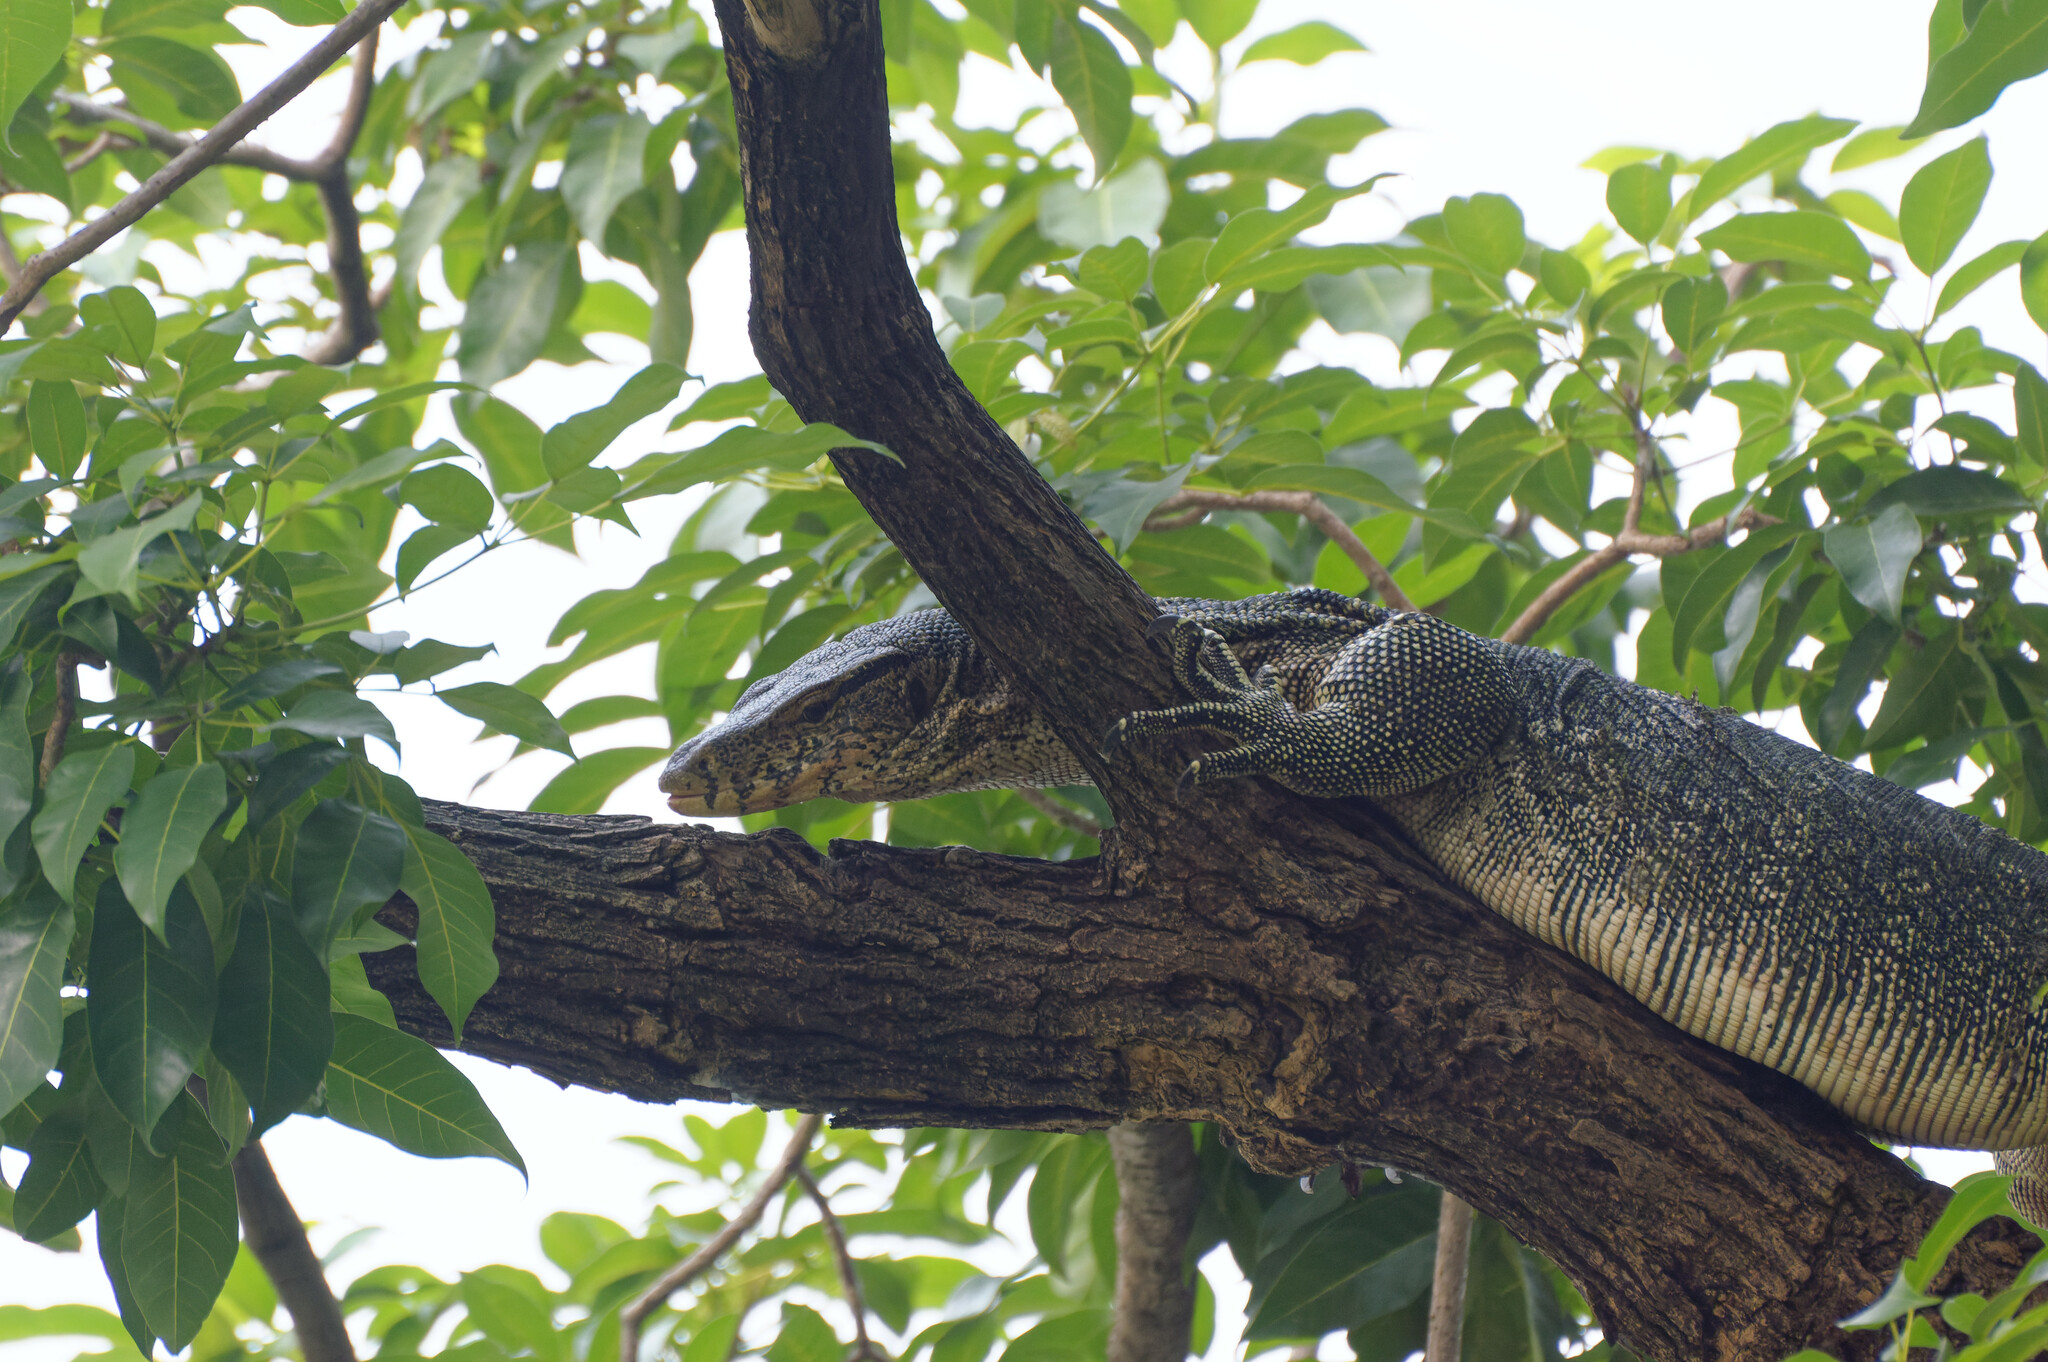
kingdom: Animalia
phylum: Chordata
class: Squamata
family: Varanidae
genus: Varanus
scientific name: Varanus salvator
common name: Common water monitor
